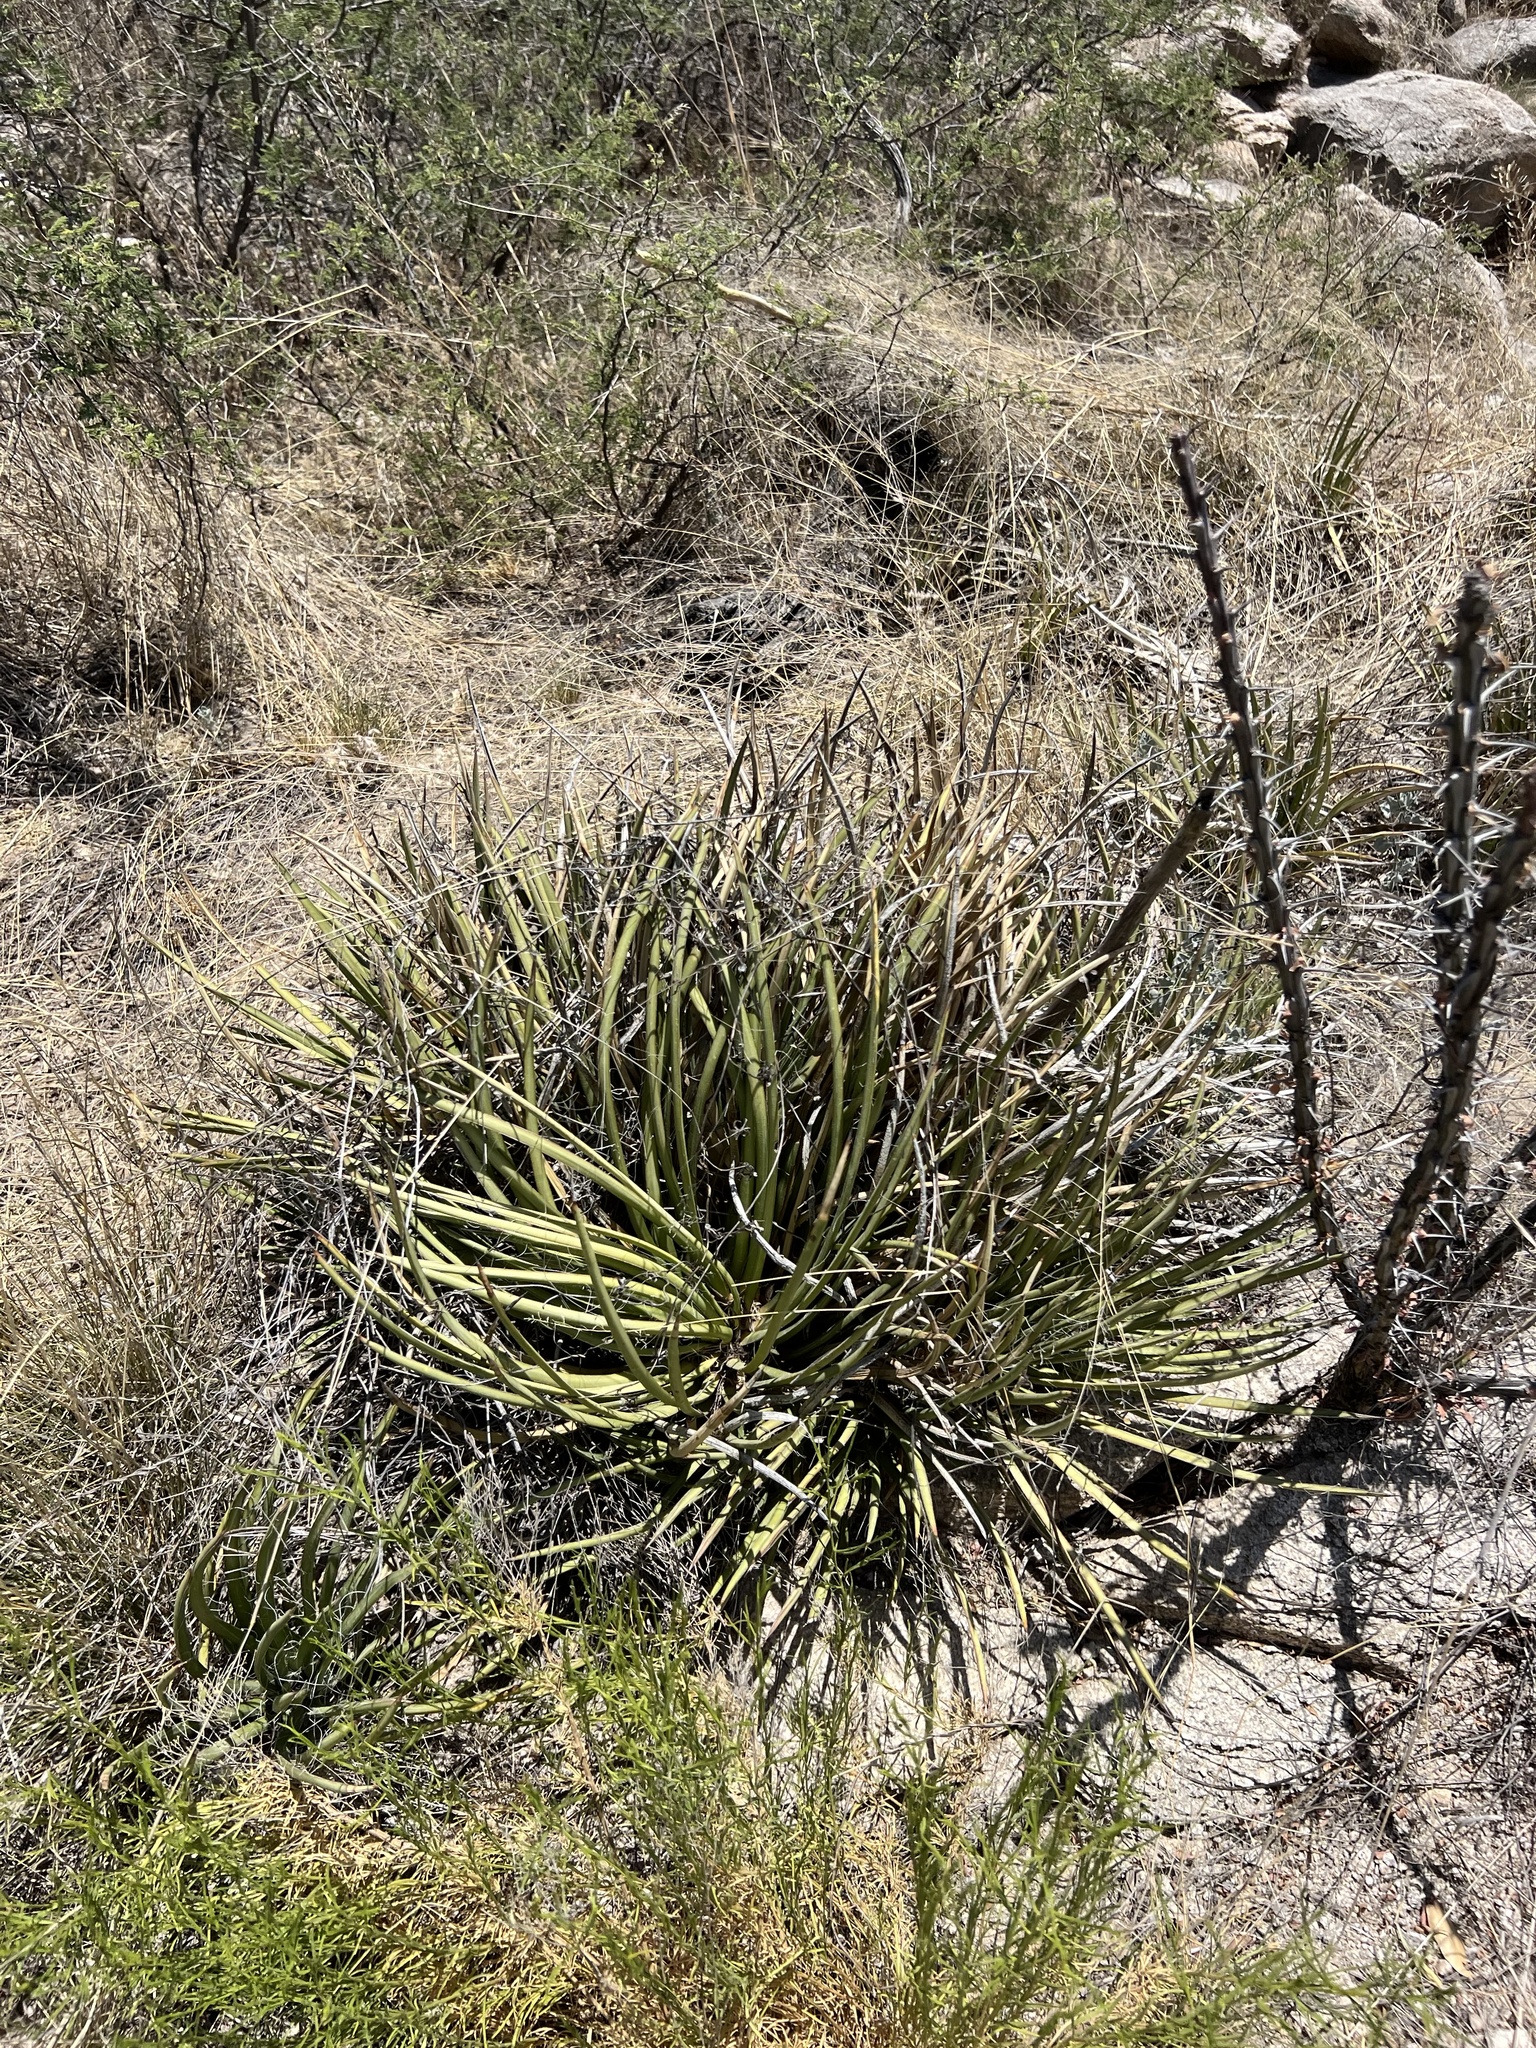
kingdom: Plantae
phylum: Tracheophyta
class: Liliopsida
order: Asparagales
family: Asparagaceae
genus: Agave
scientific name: Agave schottii
